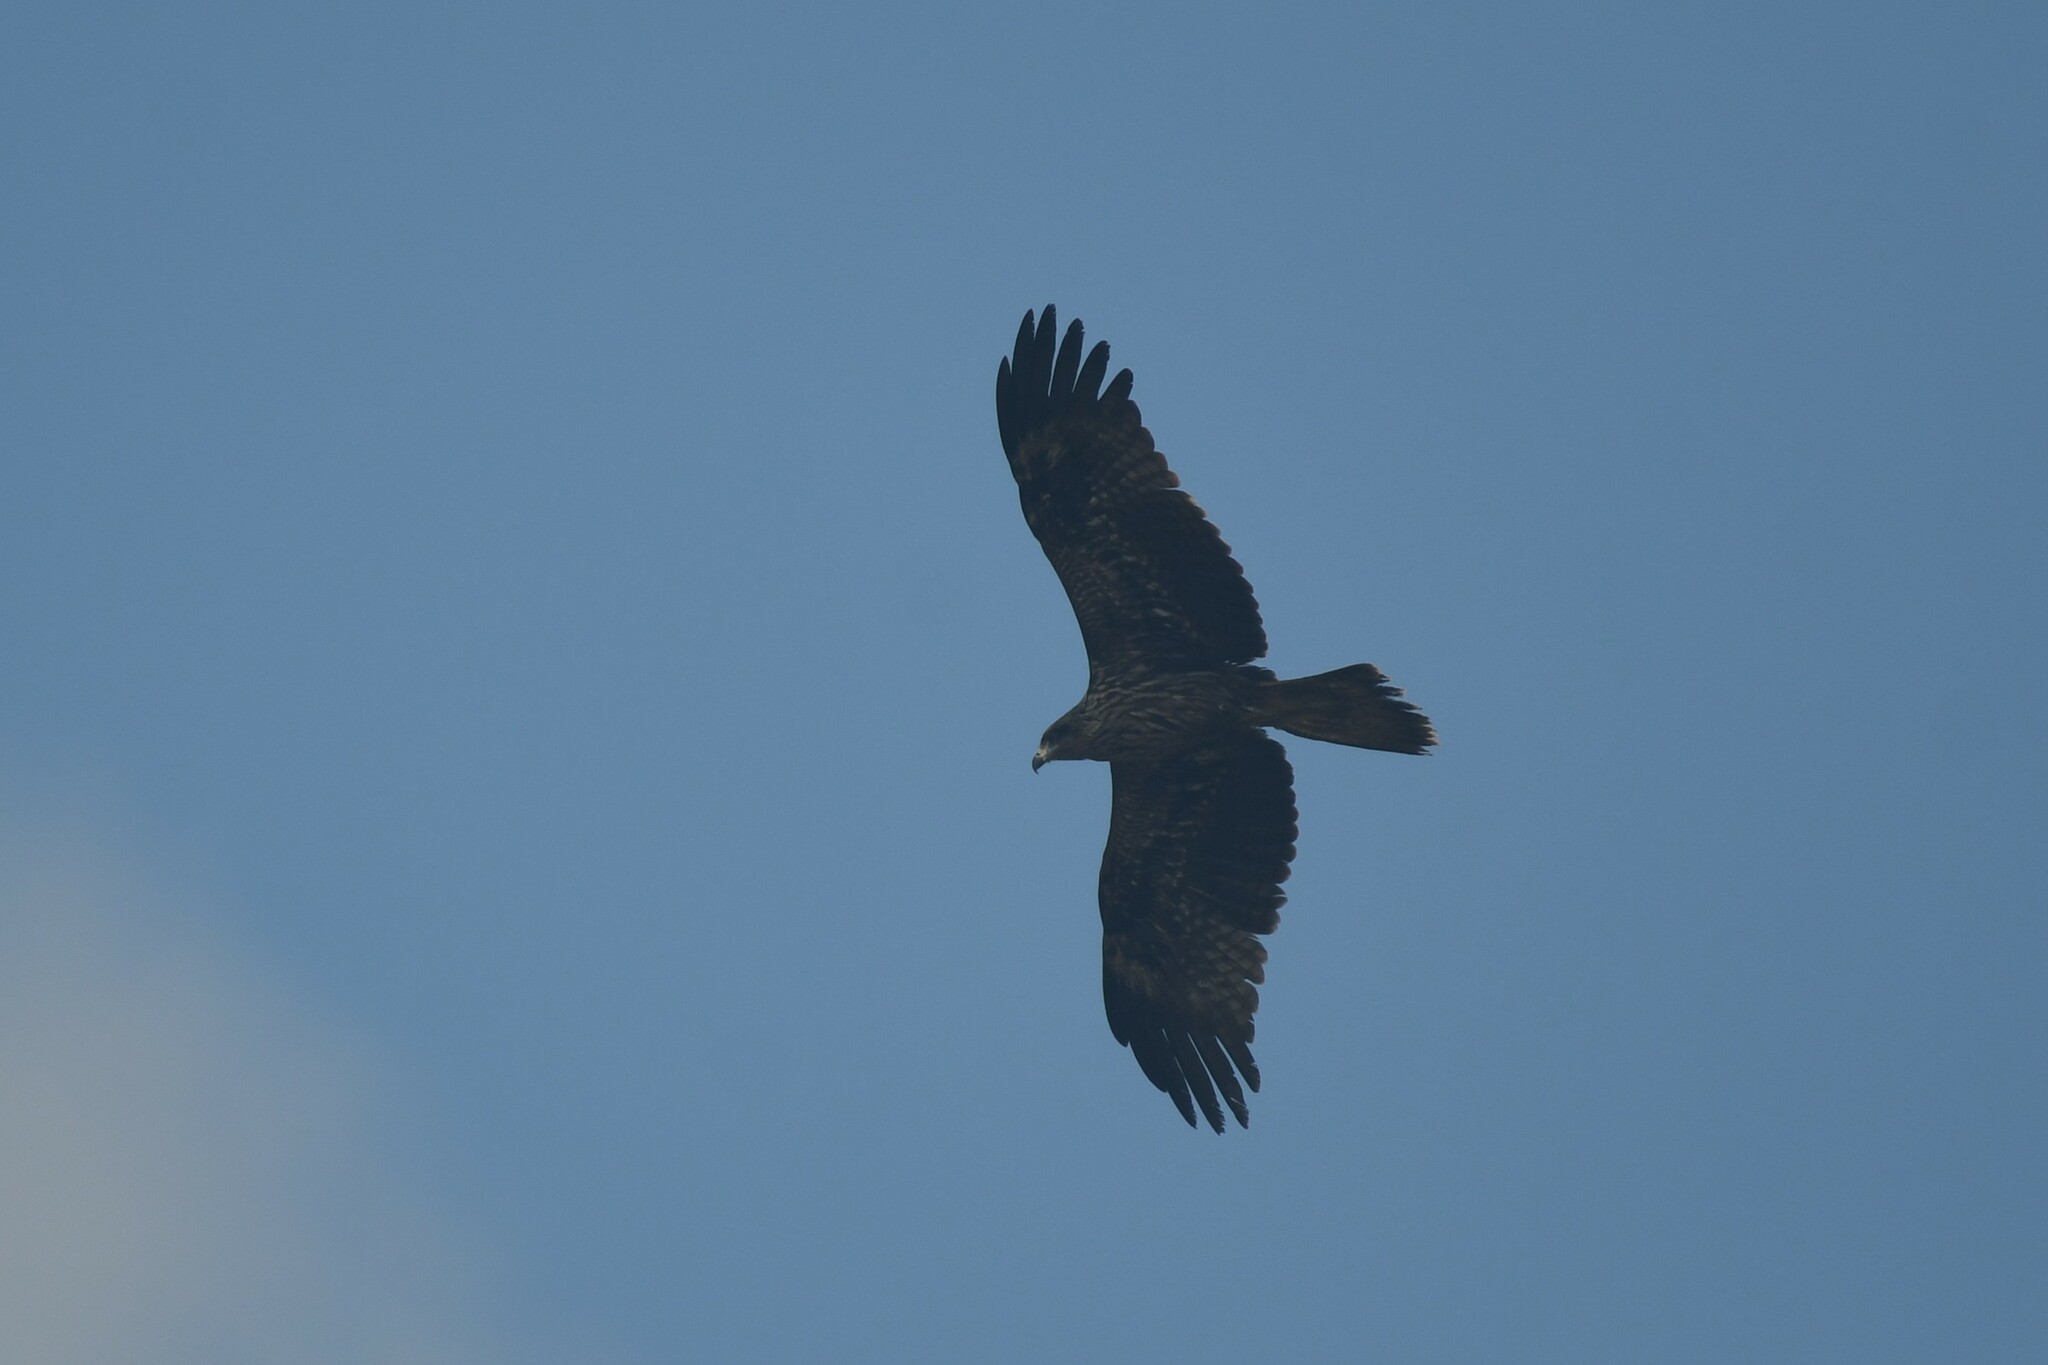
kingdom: Animalia
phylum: Chordata
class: Aves
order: Accipitriformes
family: Accipitridae
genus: Milvus
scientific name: Milvus migrans
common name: Black kite
